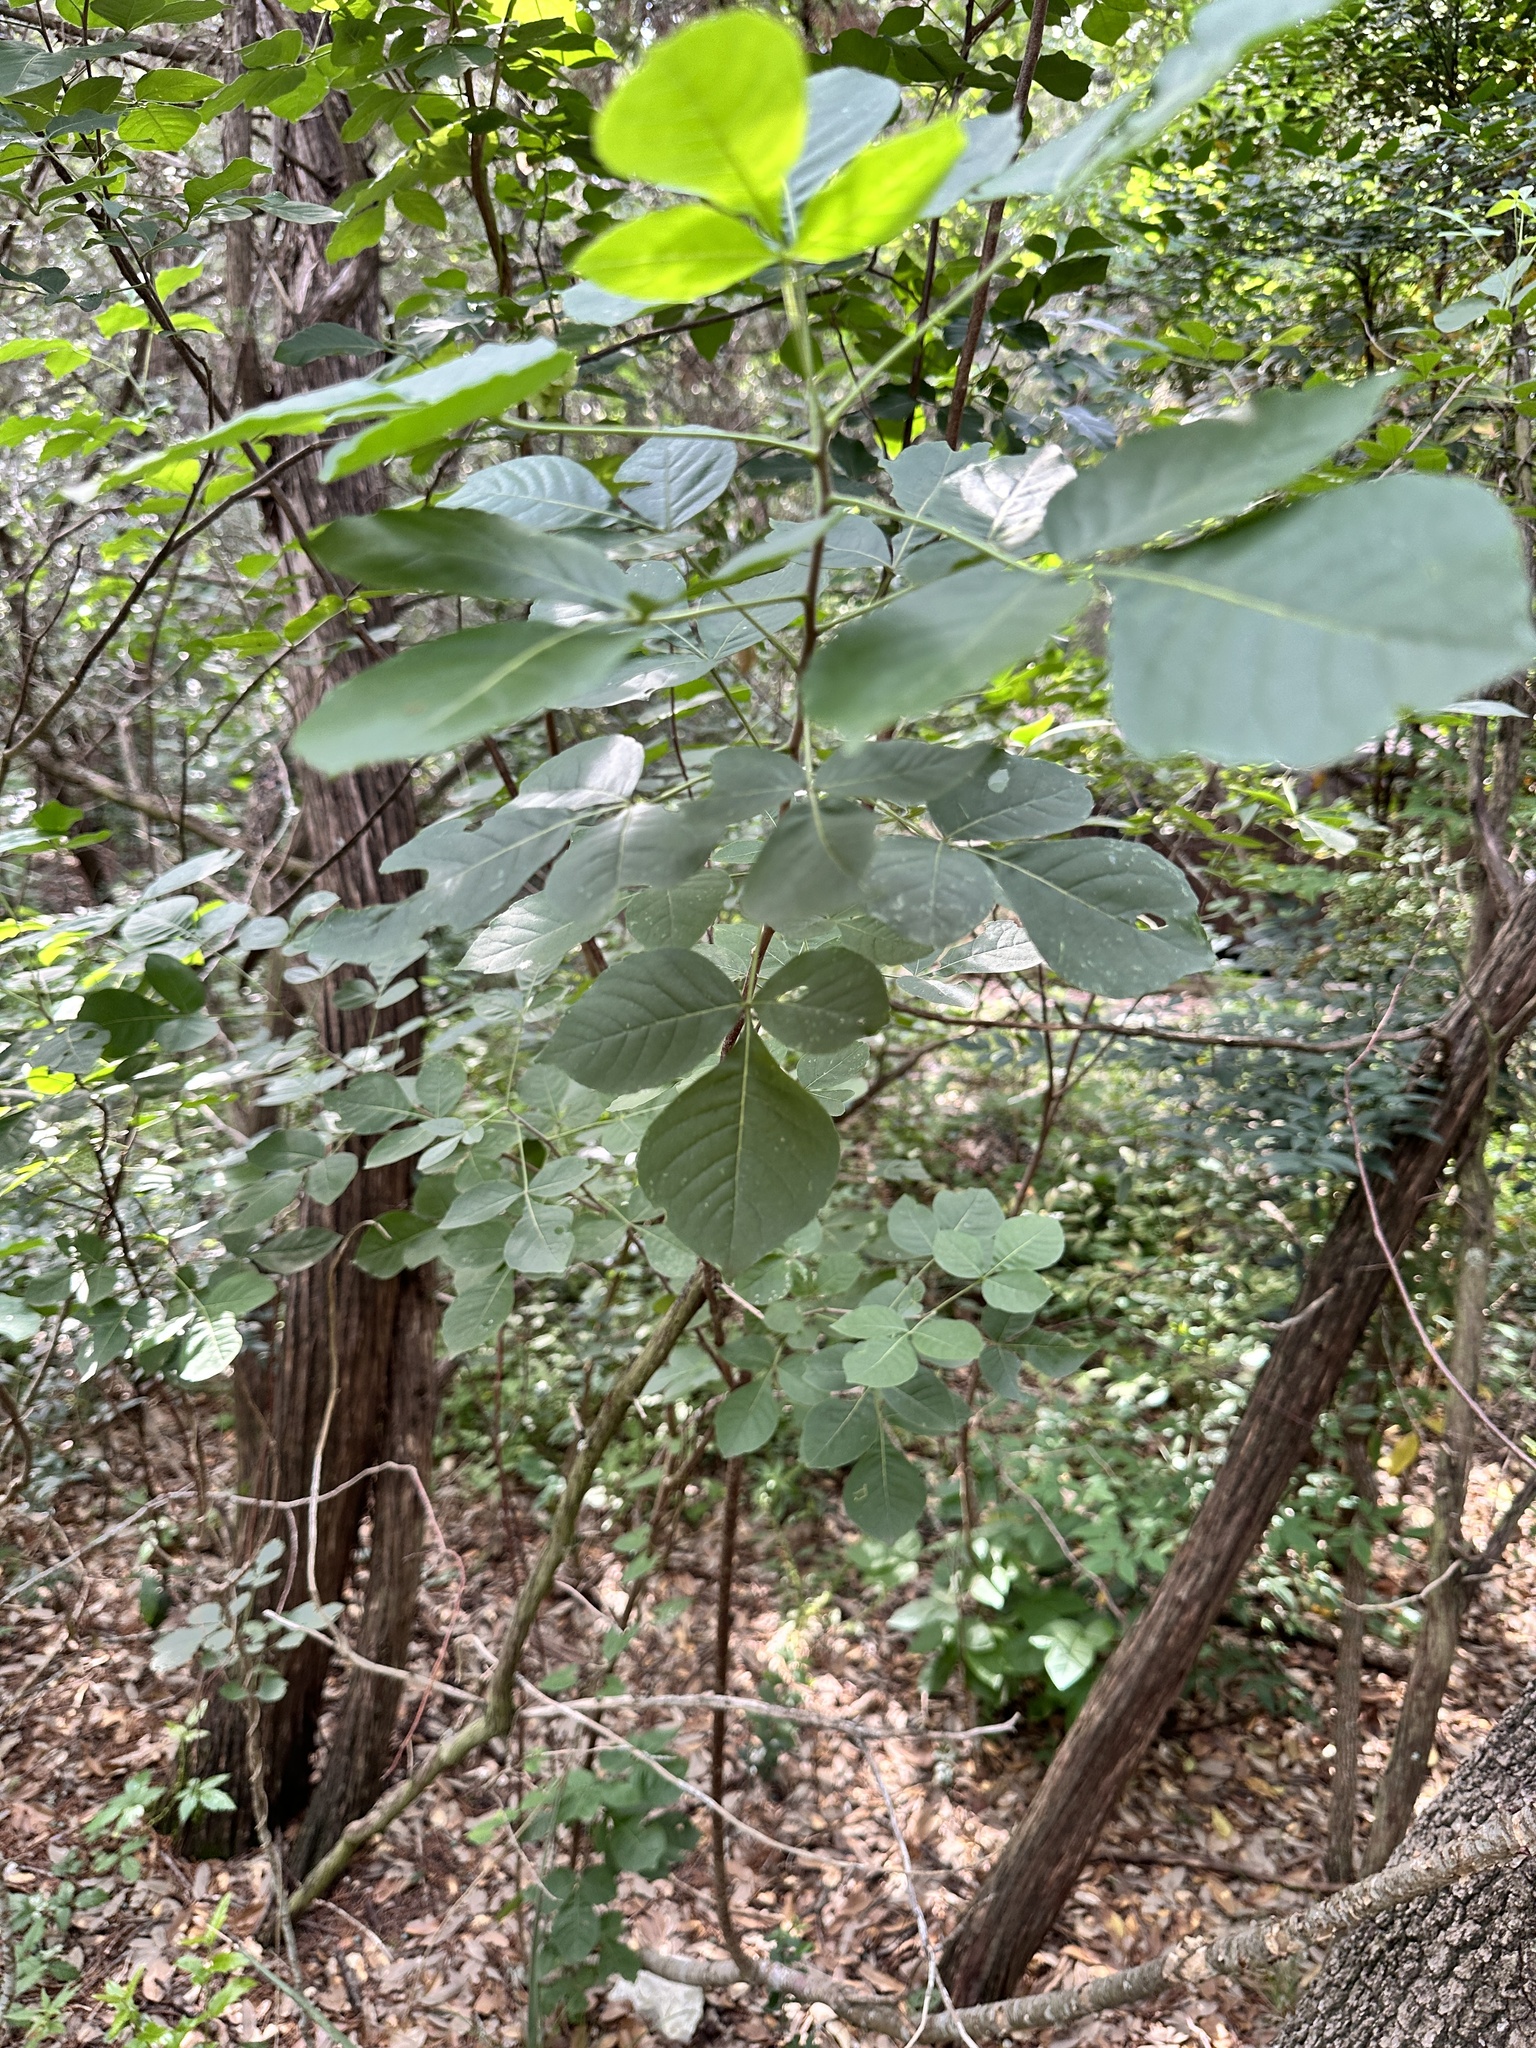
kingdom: Plantae
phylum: Tracheophyta
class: Magnoliopsida
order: Sapindales
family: Rutaceae
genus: Ptelea
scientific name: Ptelea trifoliata
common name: Common hop-tree
